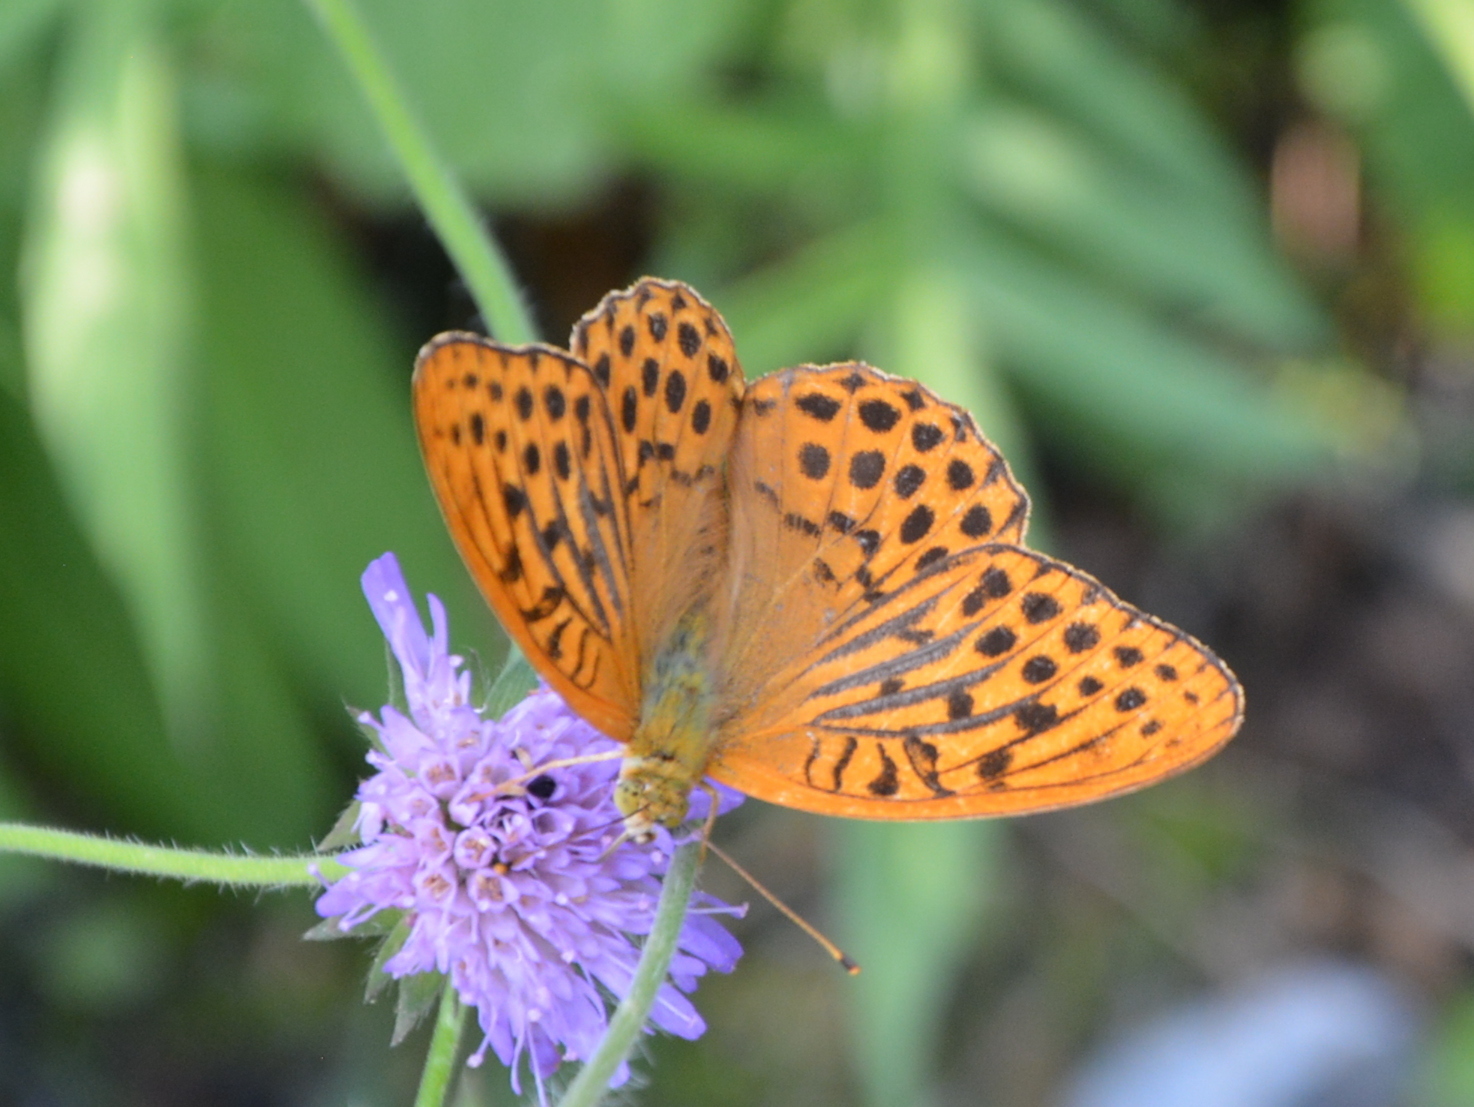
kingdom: Animalia
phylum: Arthropoda
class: Insecta
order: Lepidoptera
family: Nymphalidae
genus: Argynnis
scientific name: Argynnis paphia
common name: Silver-washed fritillary
